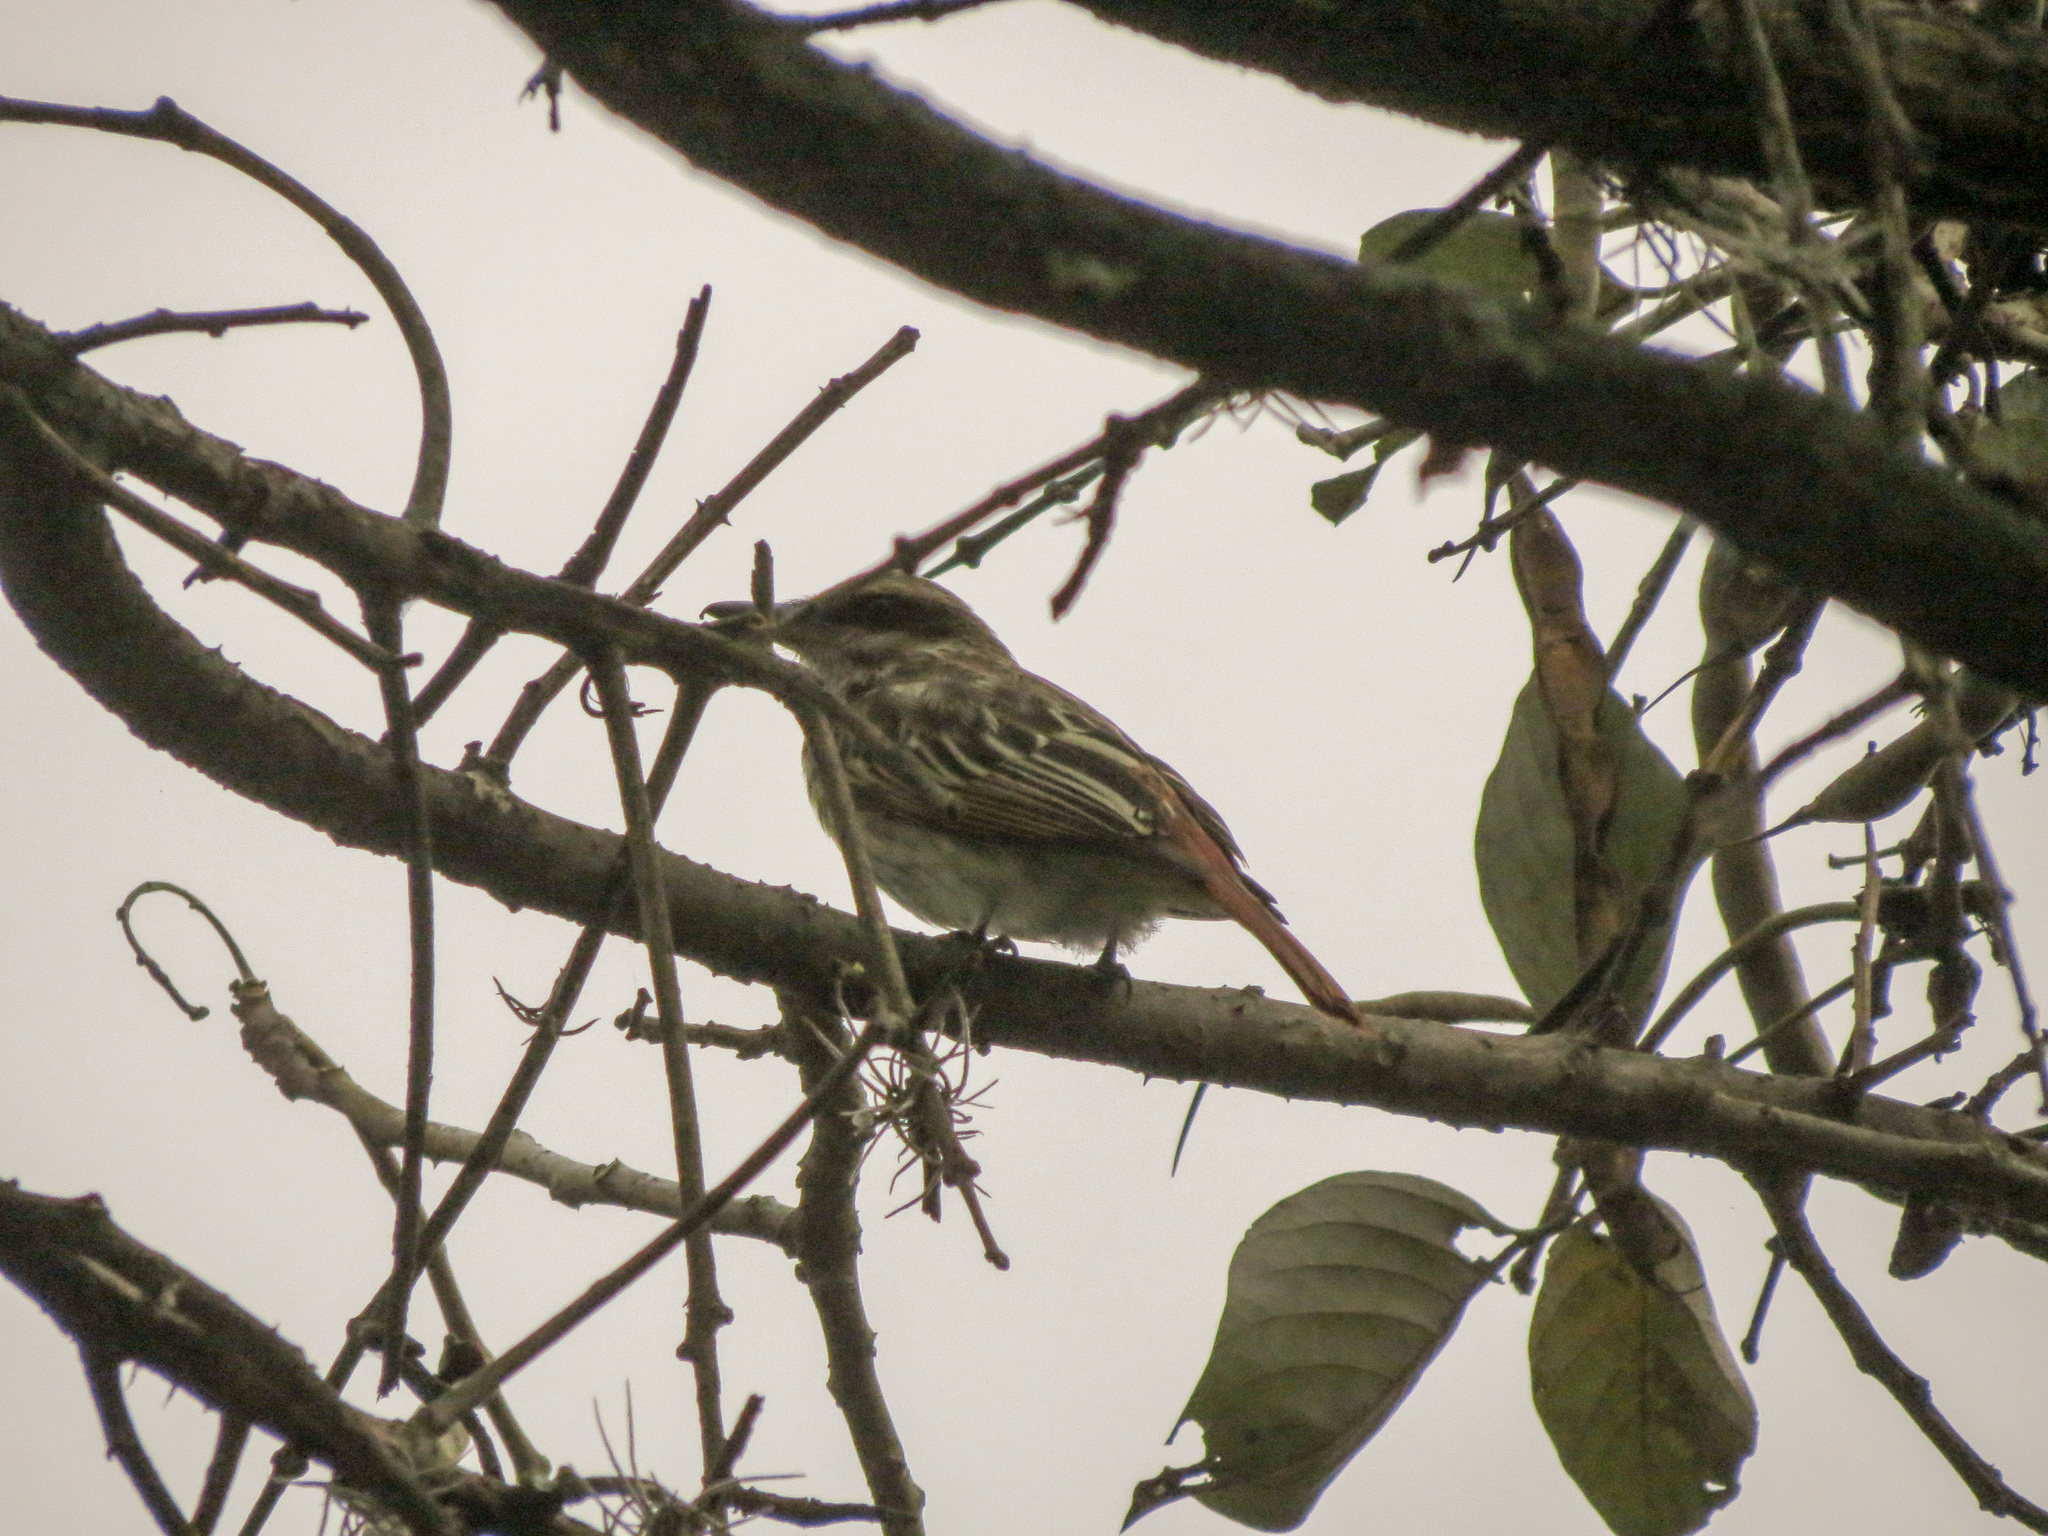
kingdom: Animalia
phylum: Chordata
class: Aves
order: Passeriformes
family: Tyrannidae
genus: Myiodynastes
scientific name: Myiodynastes maculatus
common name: Streaked flycatcher
